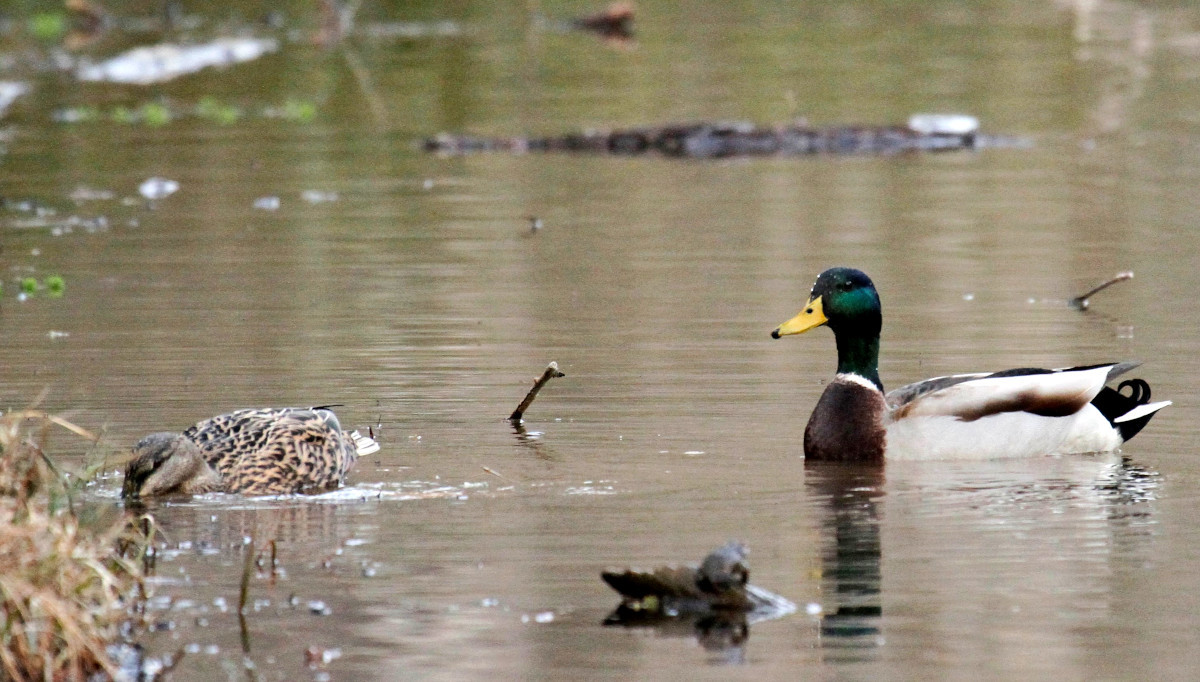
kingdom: Animalia
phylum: Chordata
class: Aves
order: Anseriformes
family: Anatidae
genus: Anas
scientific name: Anas platyrhynchos
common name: Mallard
